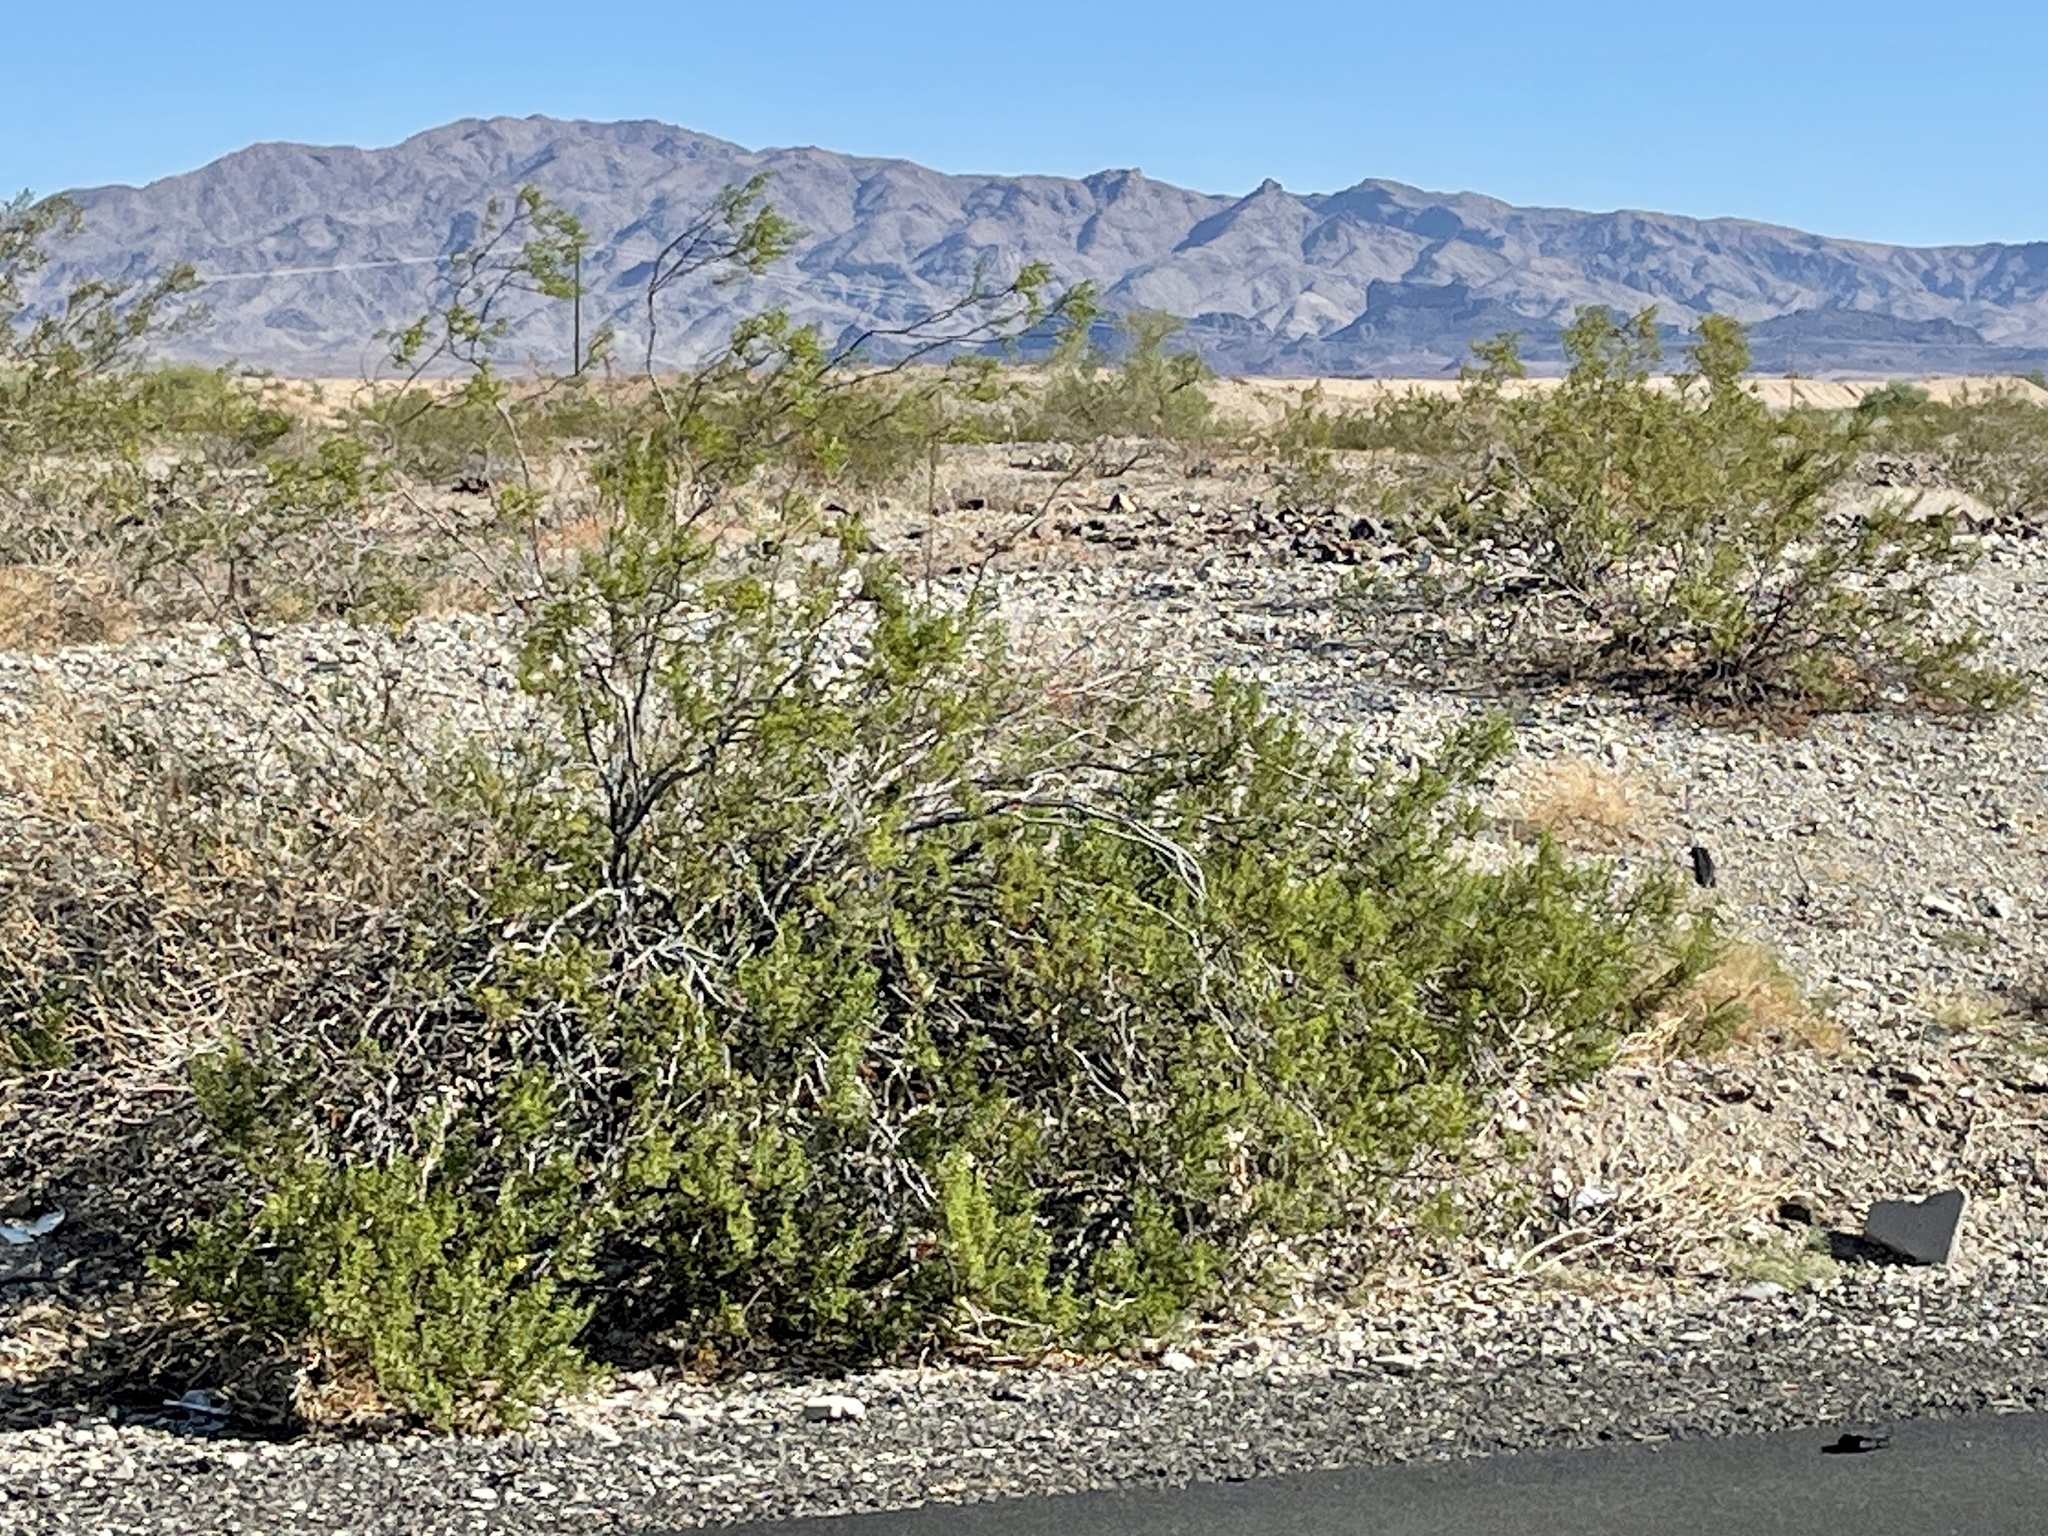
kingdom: Plantae
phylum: Tracheophyta
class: Magnoliopsida
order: Zygophyllales
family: Zygophyllaceae
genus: Larrea
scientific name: Larrea tridentata
